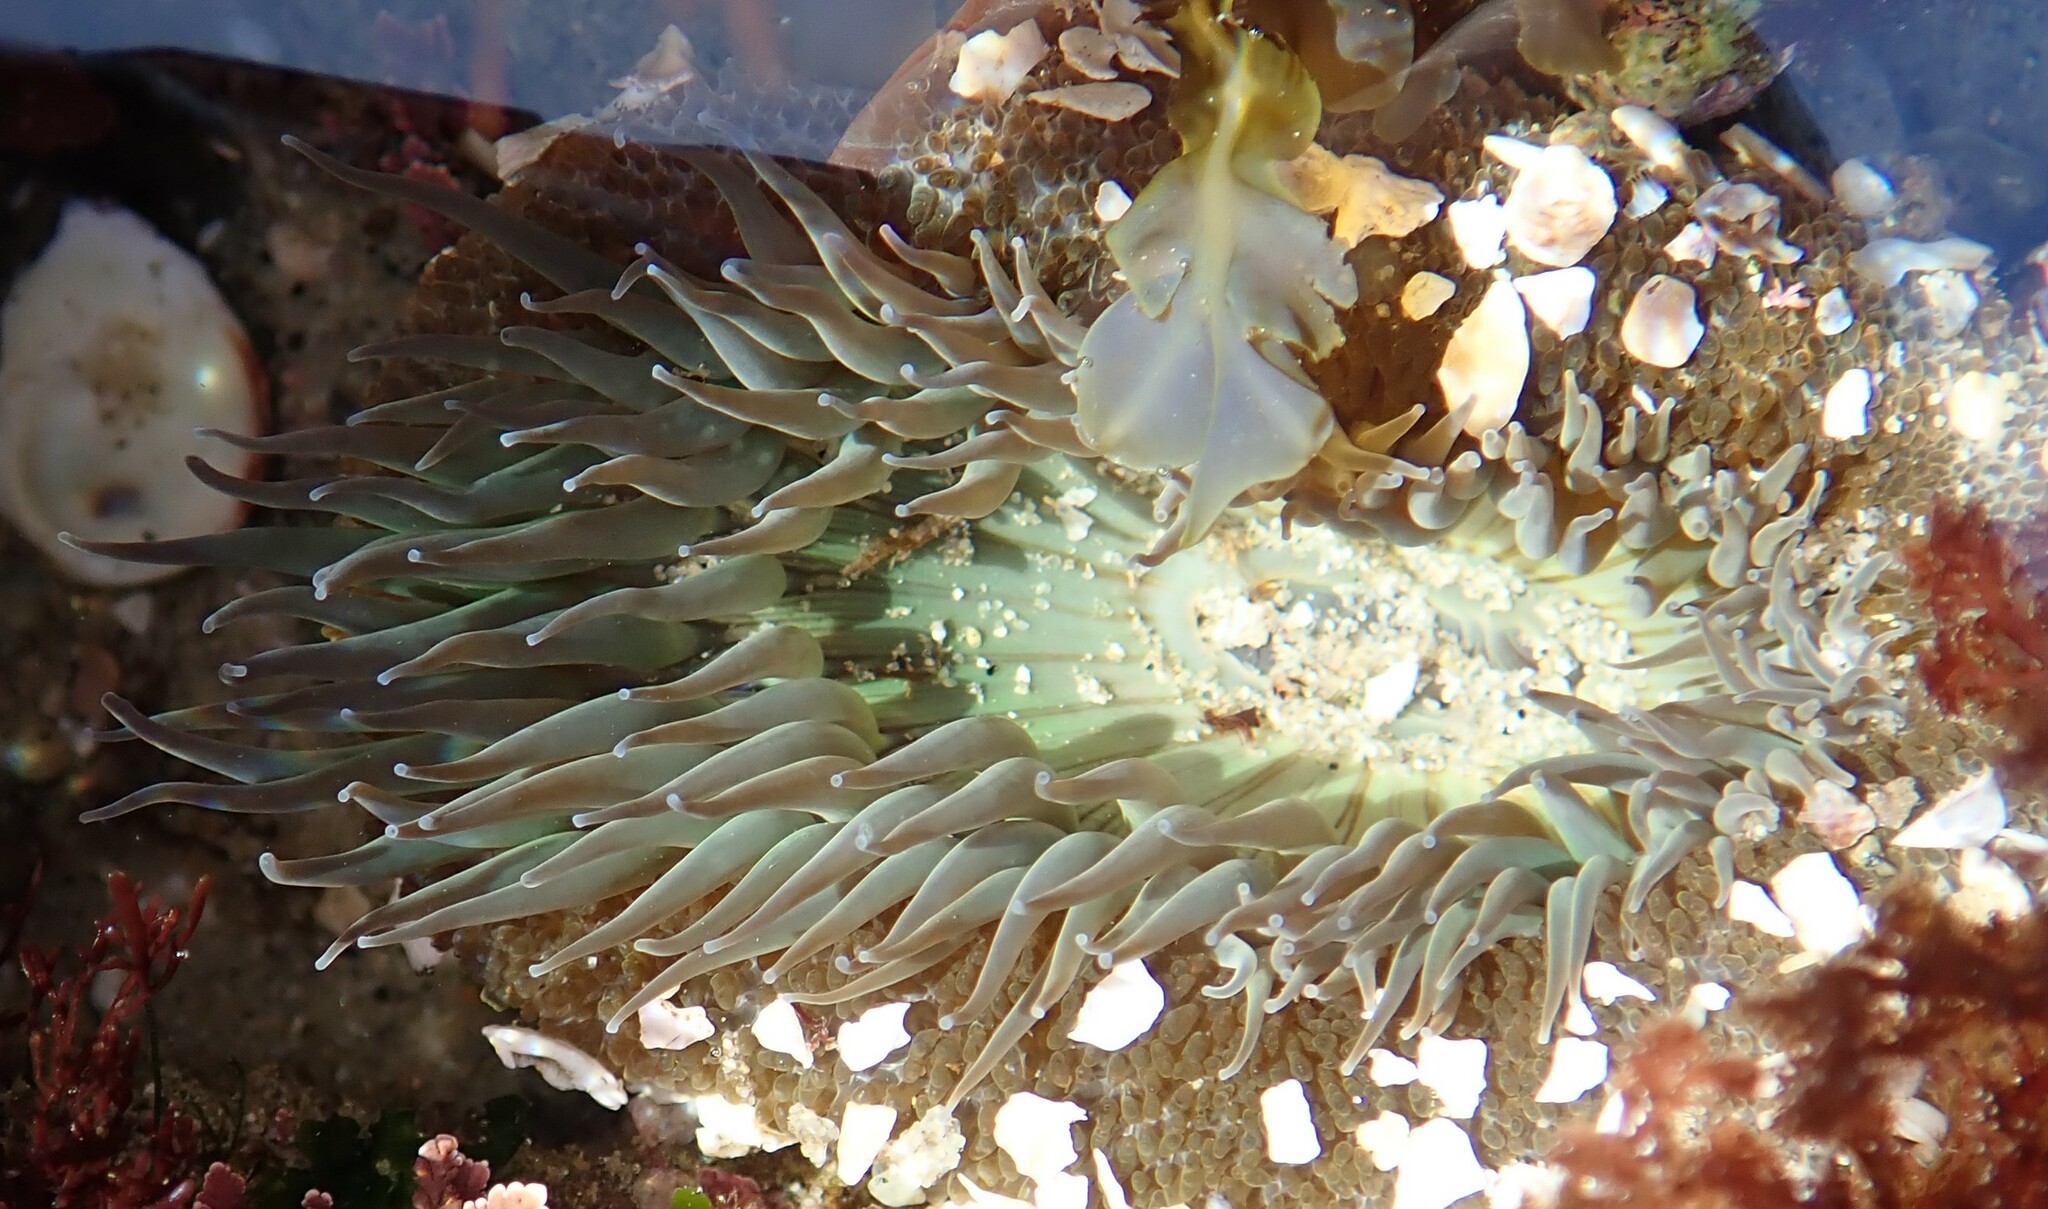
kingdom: Animalia
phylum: Cnidaria
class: Anthozoa
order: Actiniaria
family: Actiniidae
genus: Anthopleura
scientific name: Anthopleura sola
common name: Sun anemone
